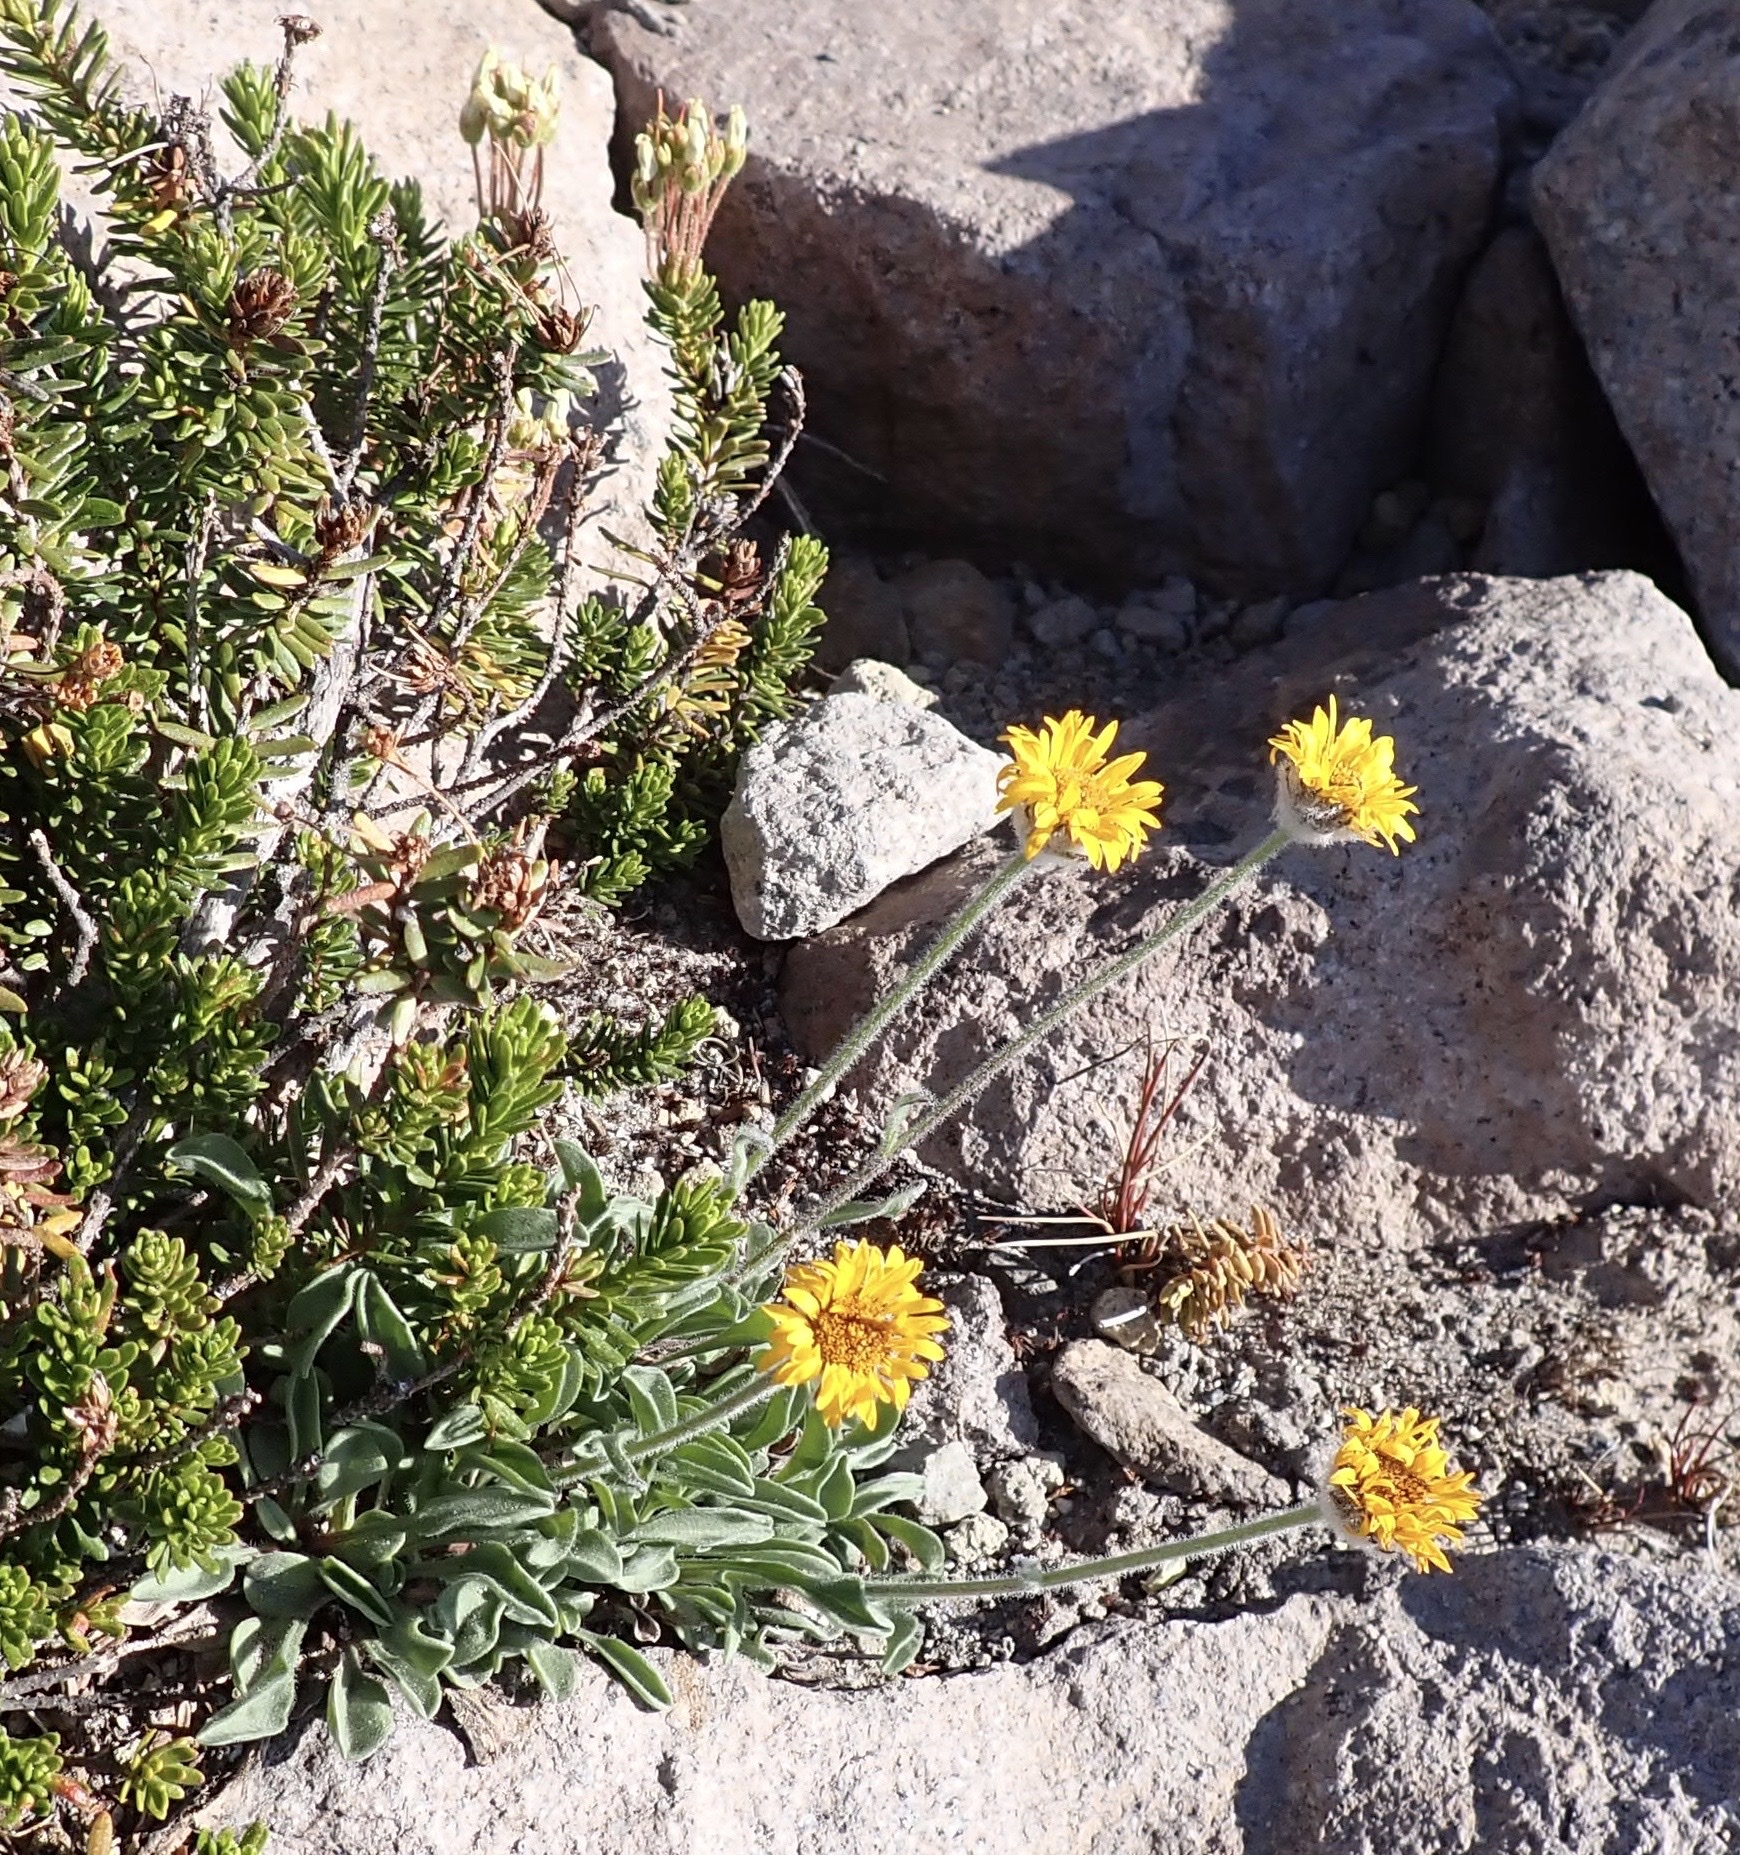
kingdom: Plantae
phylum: Tracheophyta
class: Magnoliopsida
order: Asterales
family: Asteraceae
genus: Erigeron
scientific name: Erigeron aureus
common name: Alpine yellow fleabane
